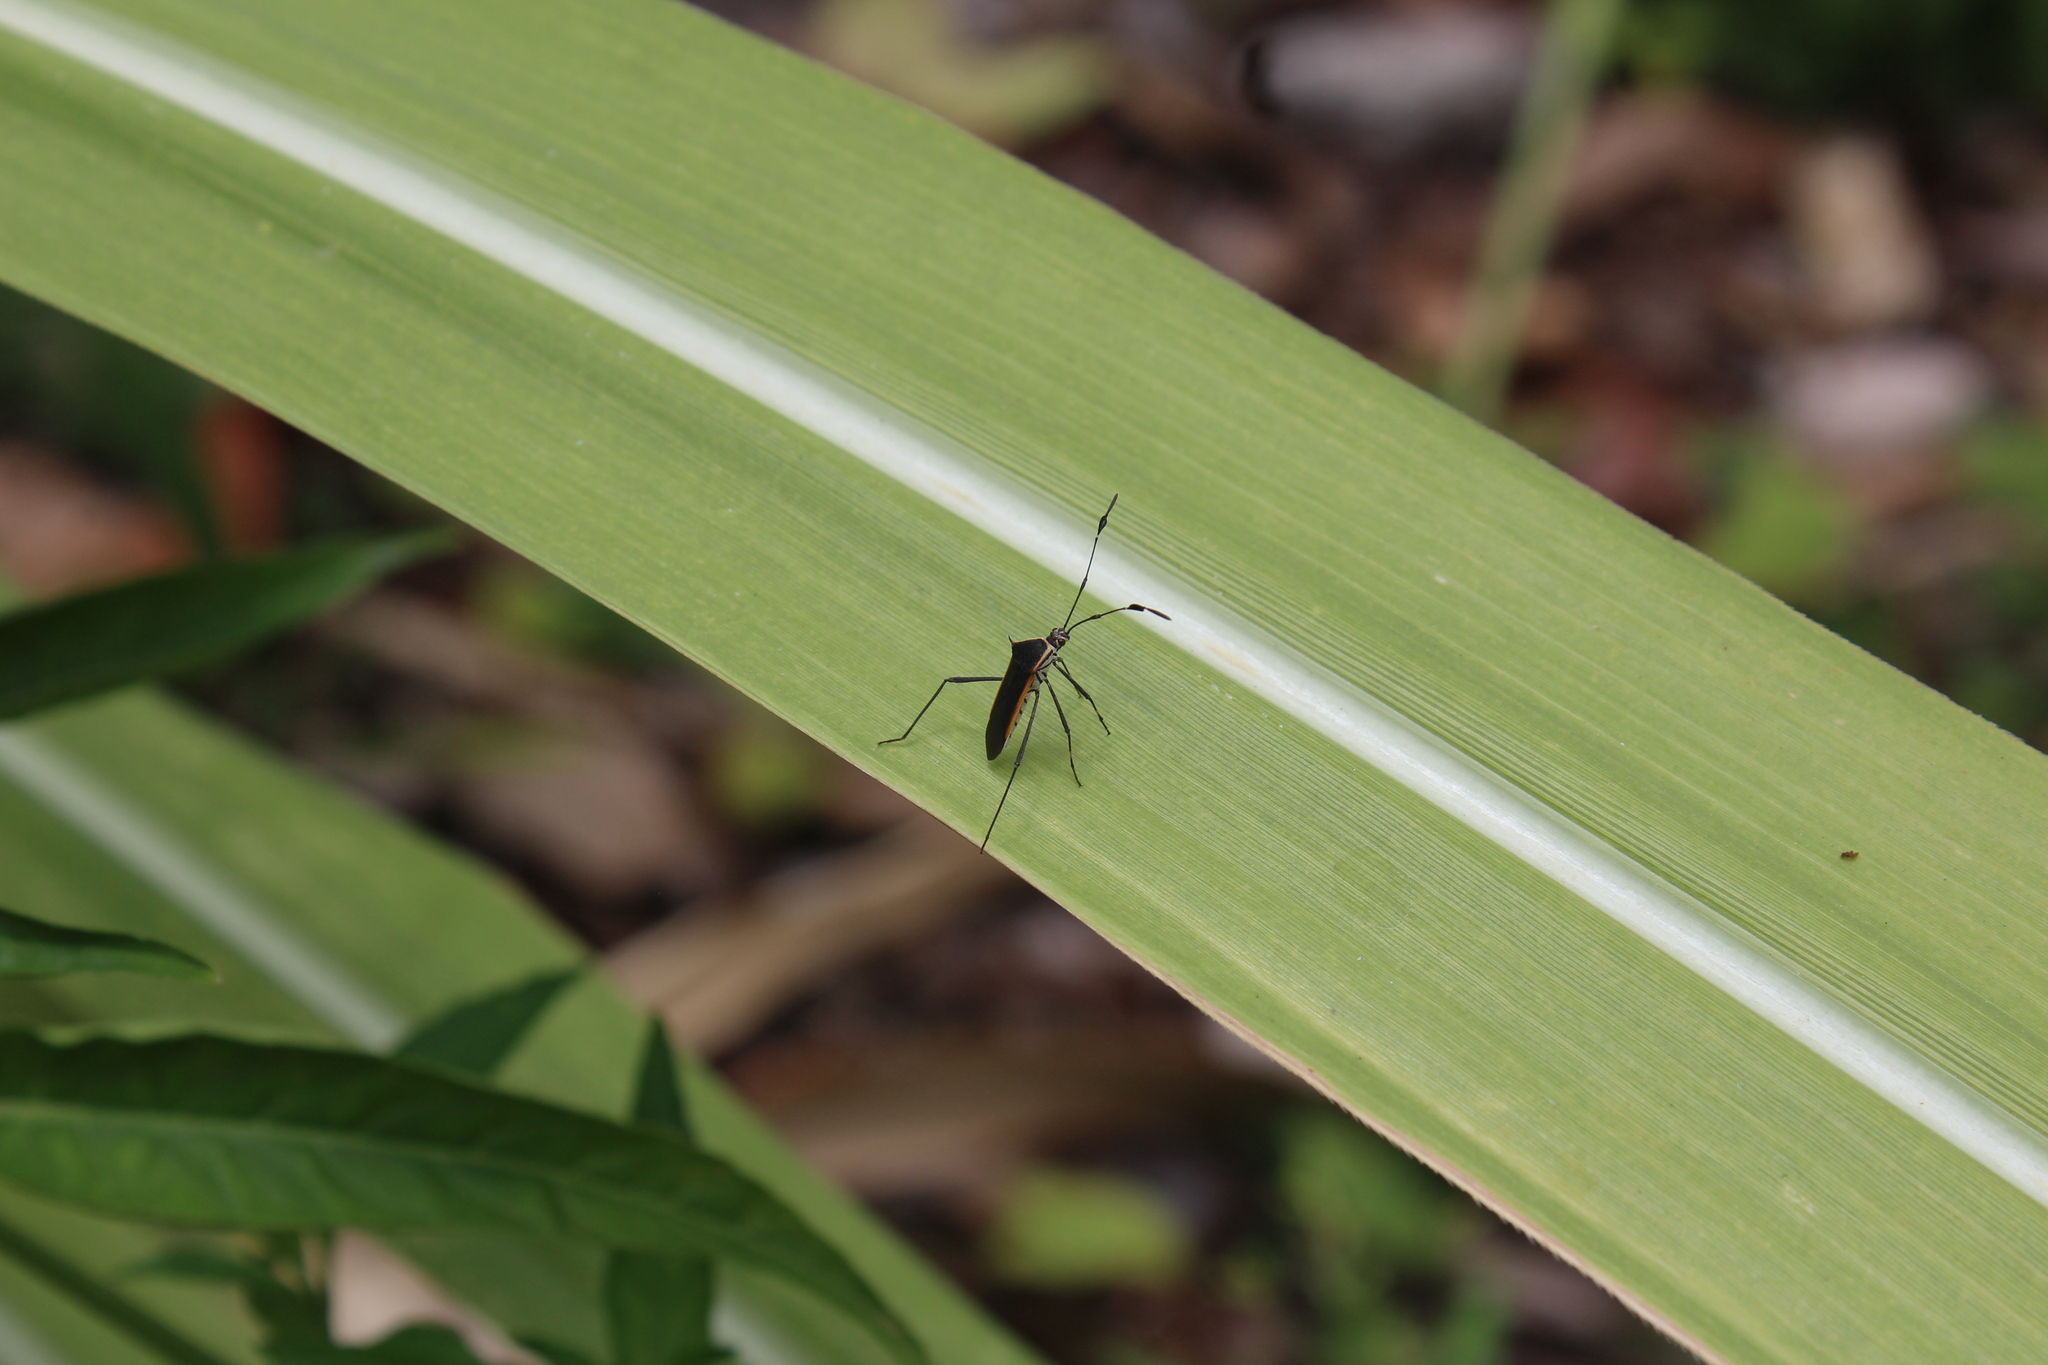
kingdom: Animalia
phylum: Arthropoda
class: Insecta
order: Hemiptera
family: Coreidae
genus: Plapigus
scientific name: Plapigus circumcinctus
